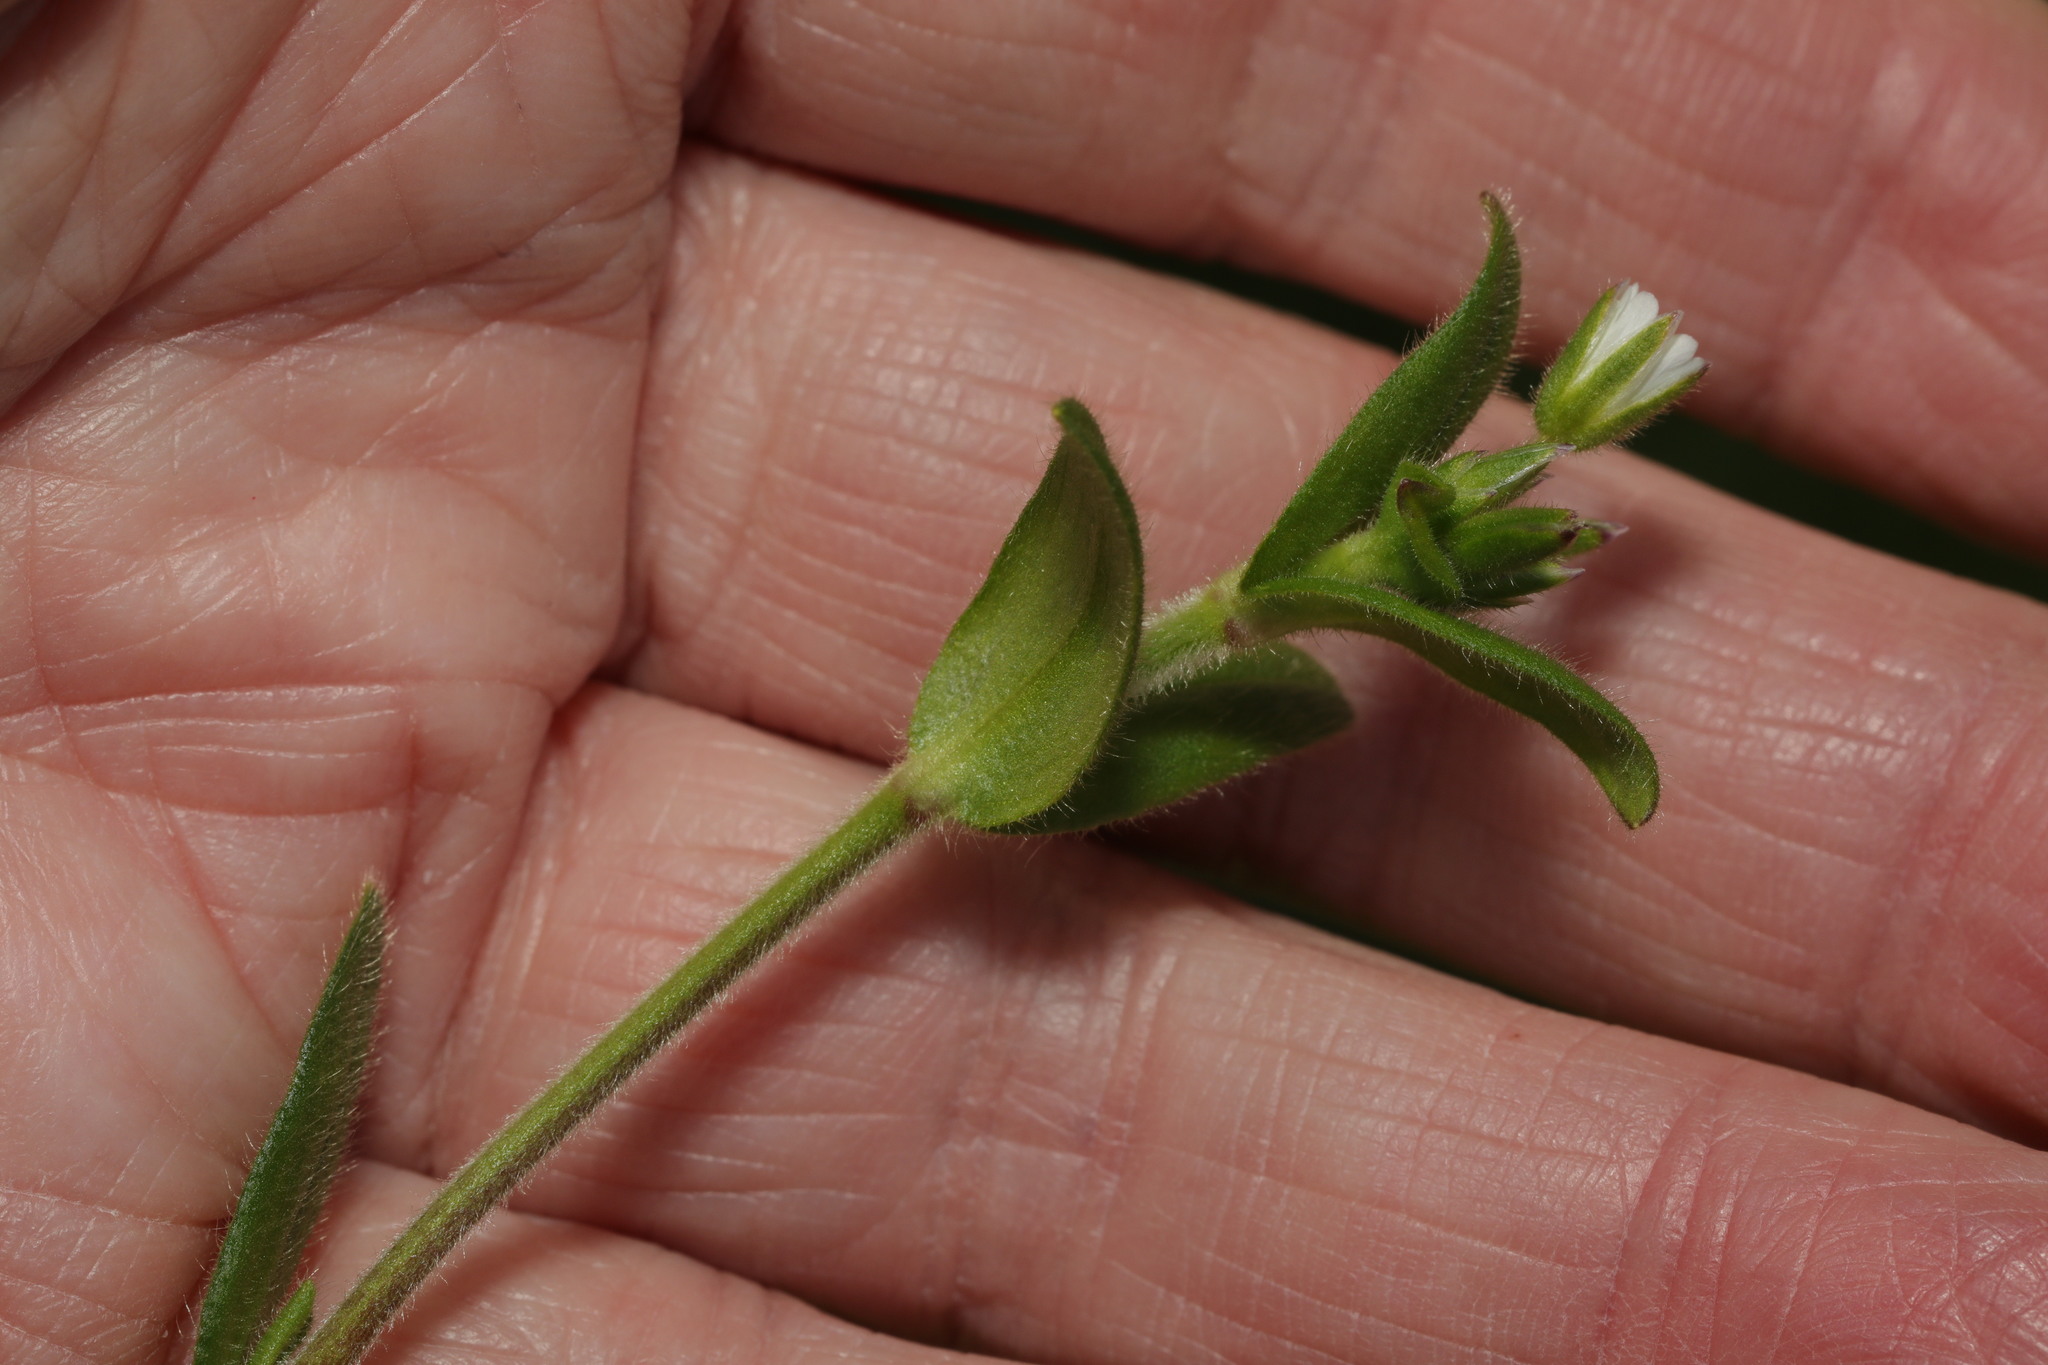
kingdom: Plantae
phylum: Tracheophyta
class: Magnoliopsida
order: Caryophyllales
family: Caryophyllaceae
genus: Cerastium
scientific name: Cerastium fontanum
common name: Common mouse-ear
